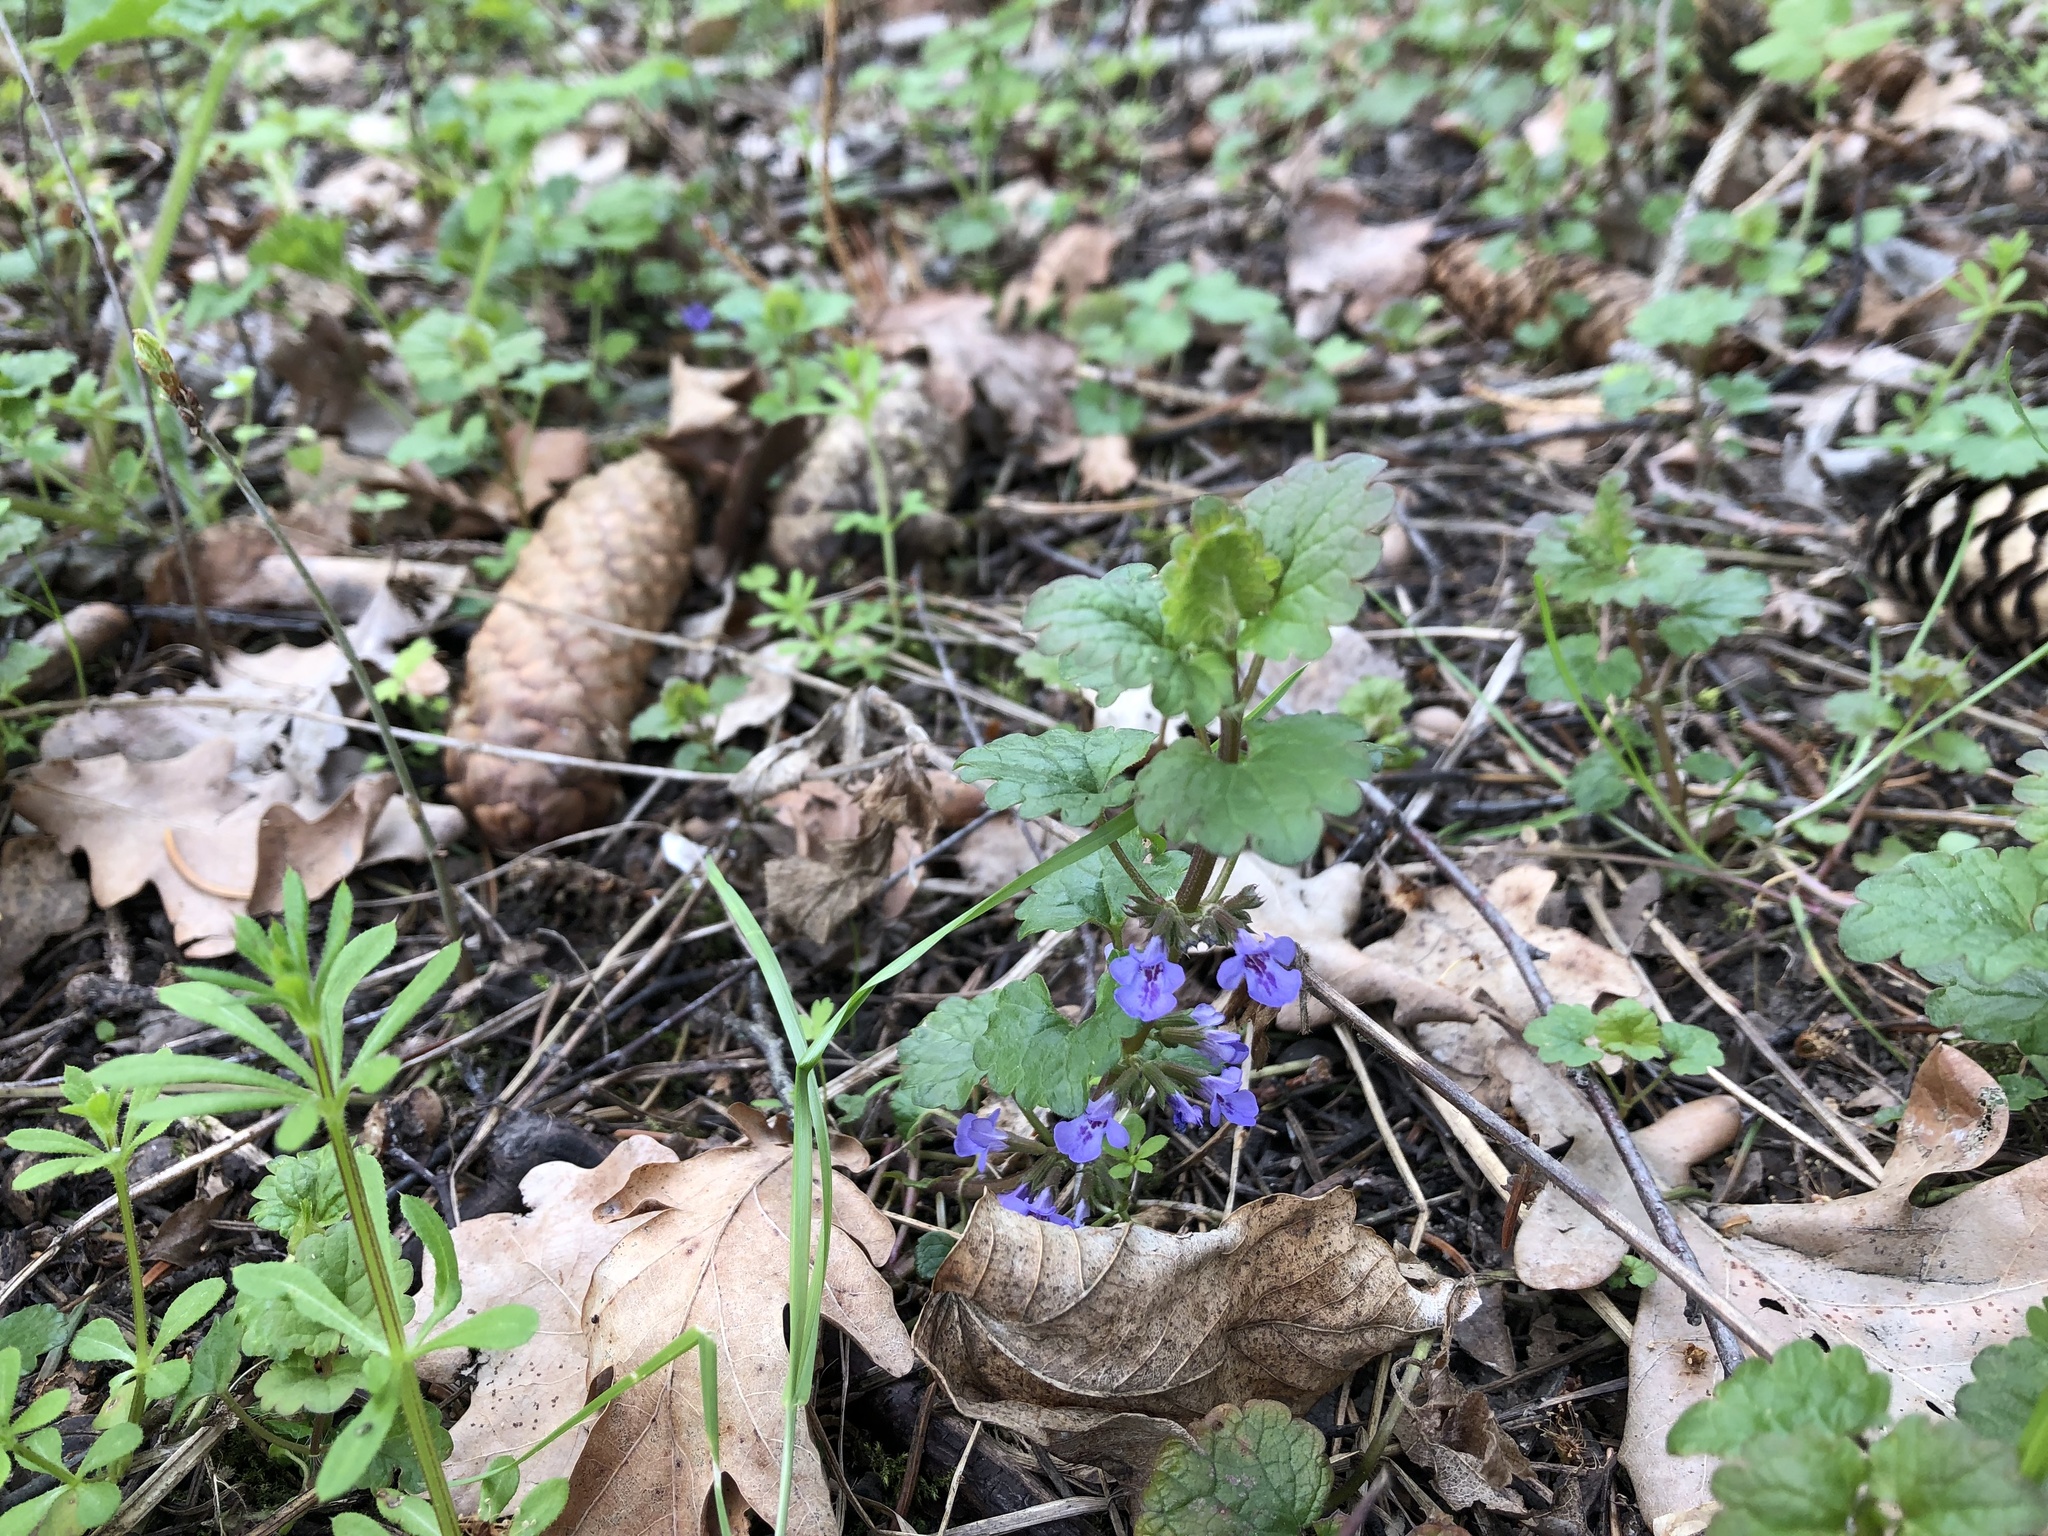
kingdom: Plantae
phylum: Tracheophyta
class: Magnoliopsida
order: Lamiales
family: Lamiaceae
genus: Glechoma
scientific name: Glechoma hederacea
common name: Ground ivy
